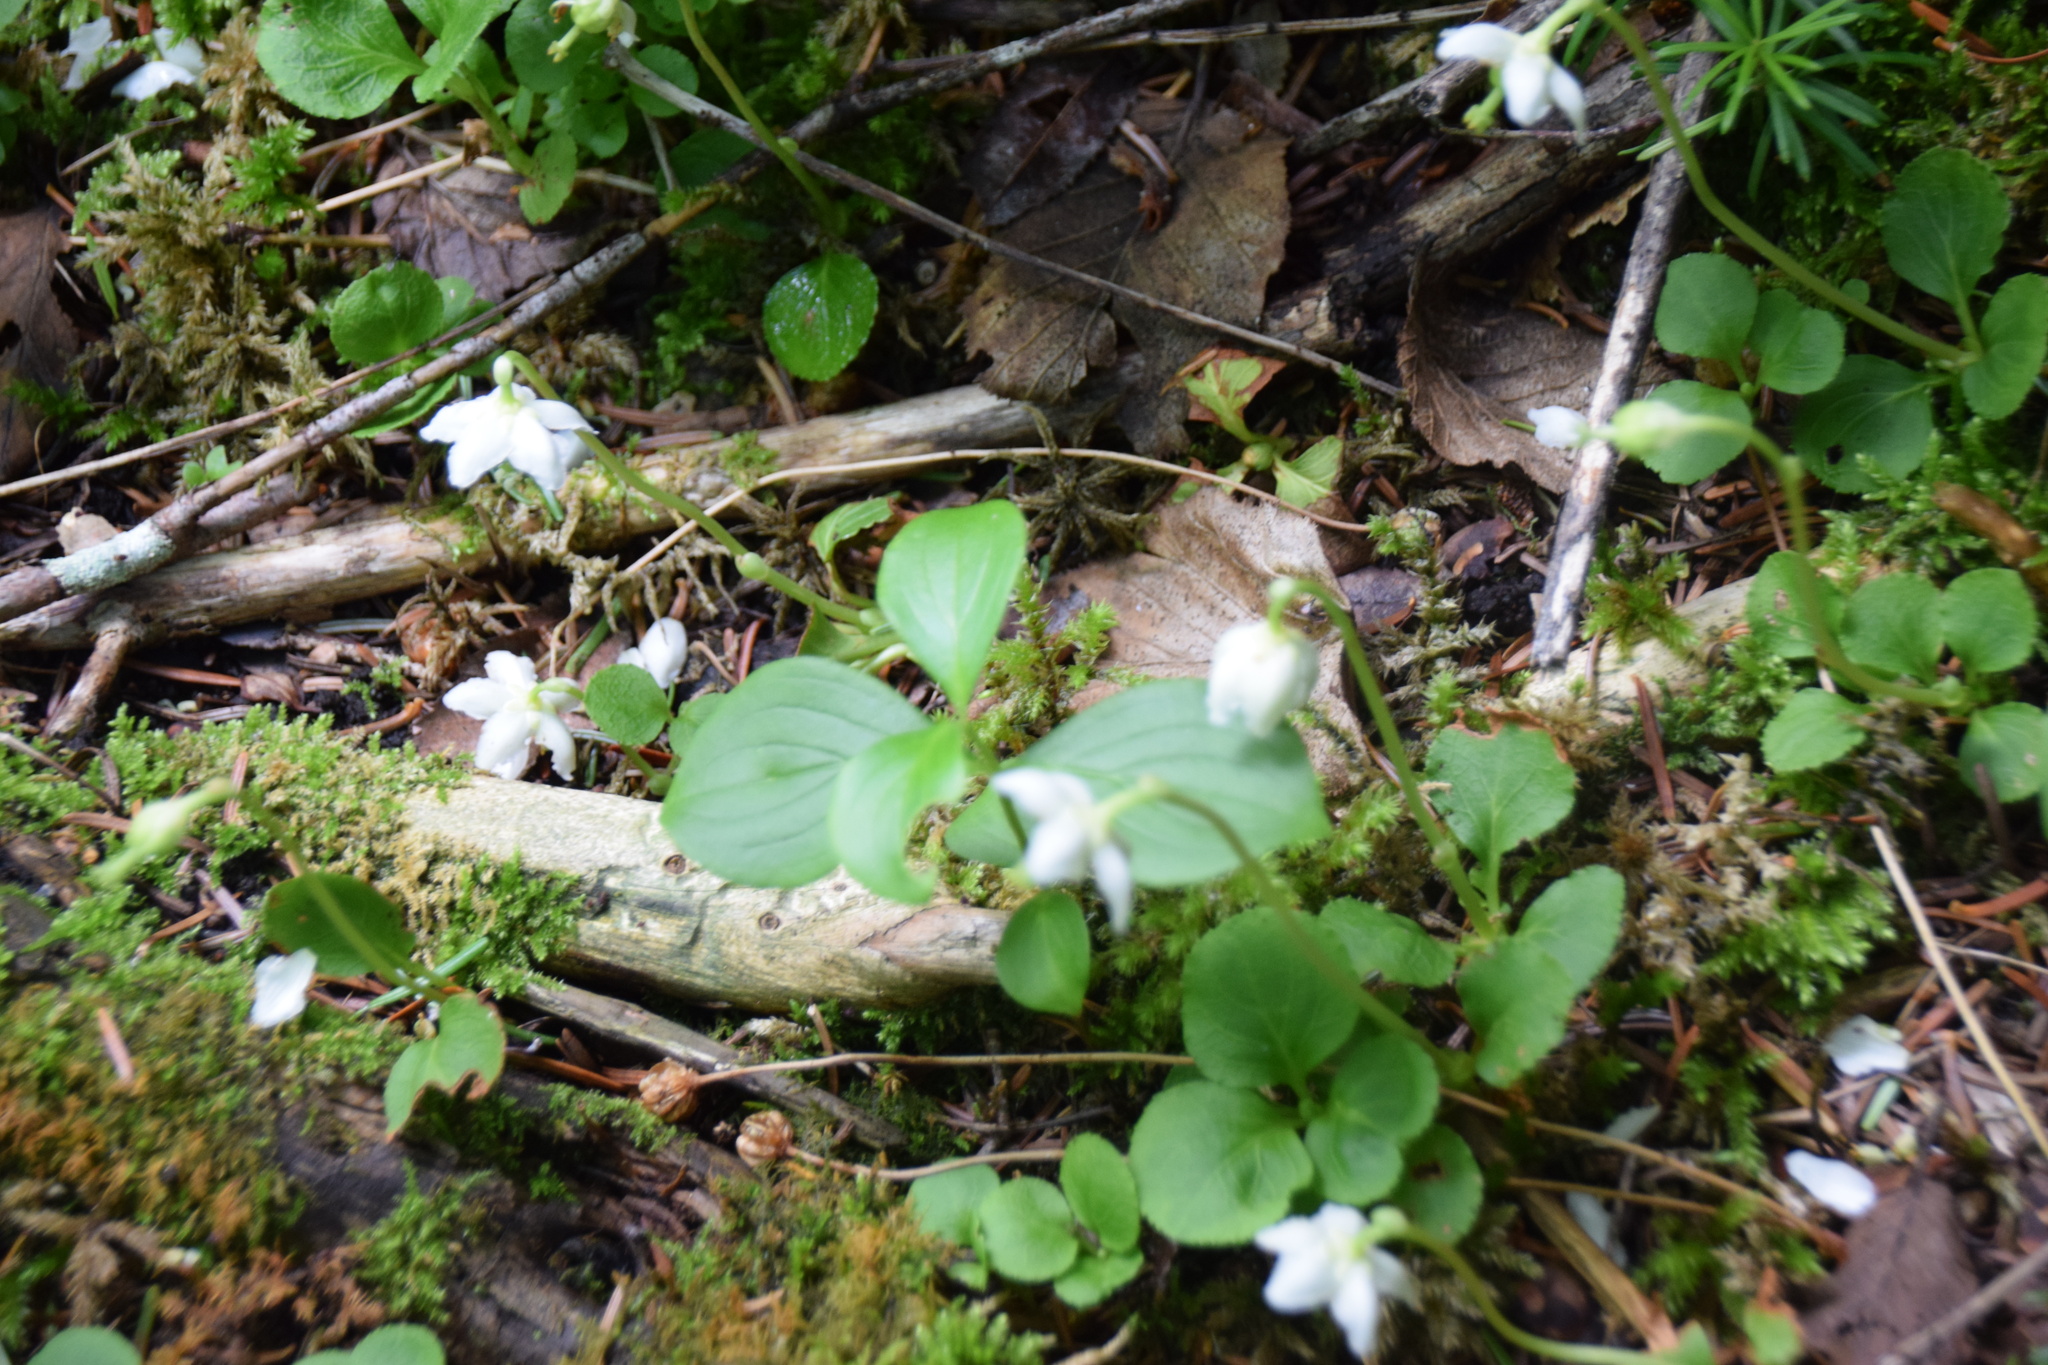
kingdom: Plantae
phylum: Tracheophyta
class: Magnoliopsida
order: Ericales
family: Ericaceae
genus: Moneses
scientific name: Moneses uniflora
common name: One-flowered wintergreen
